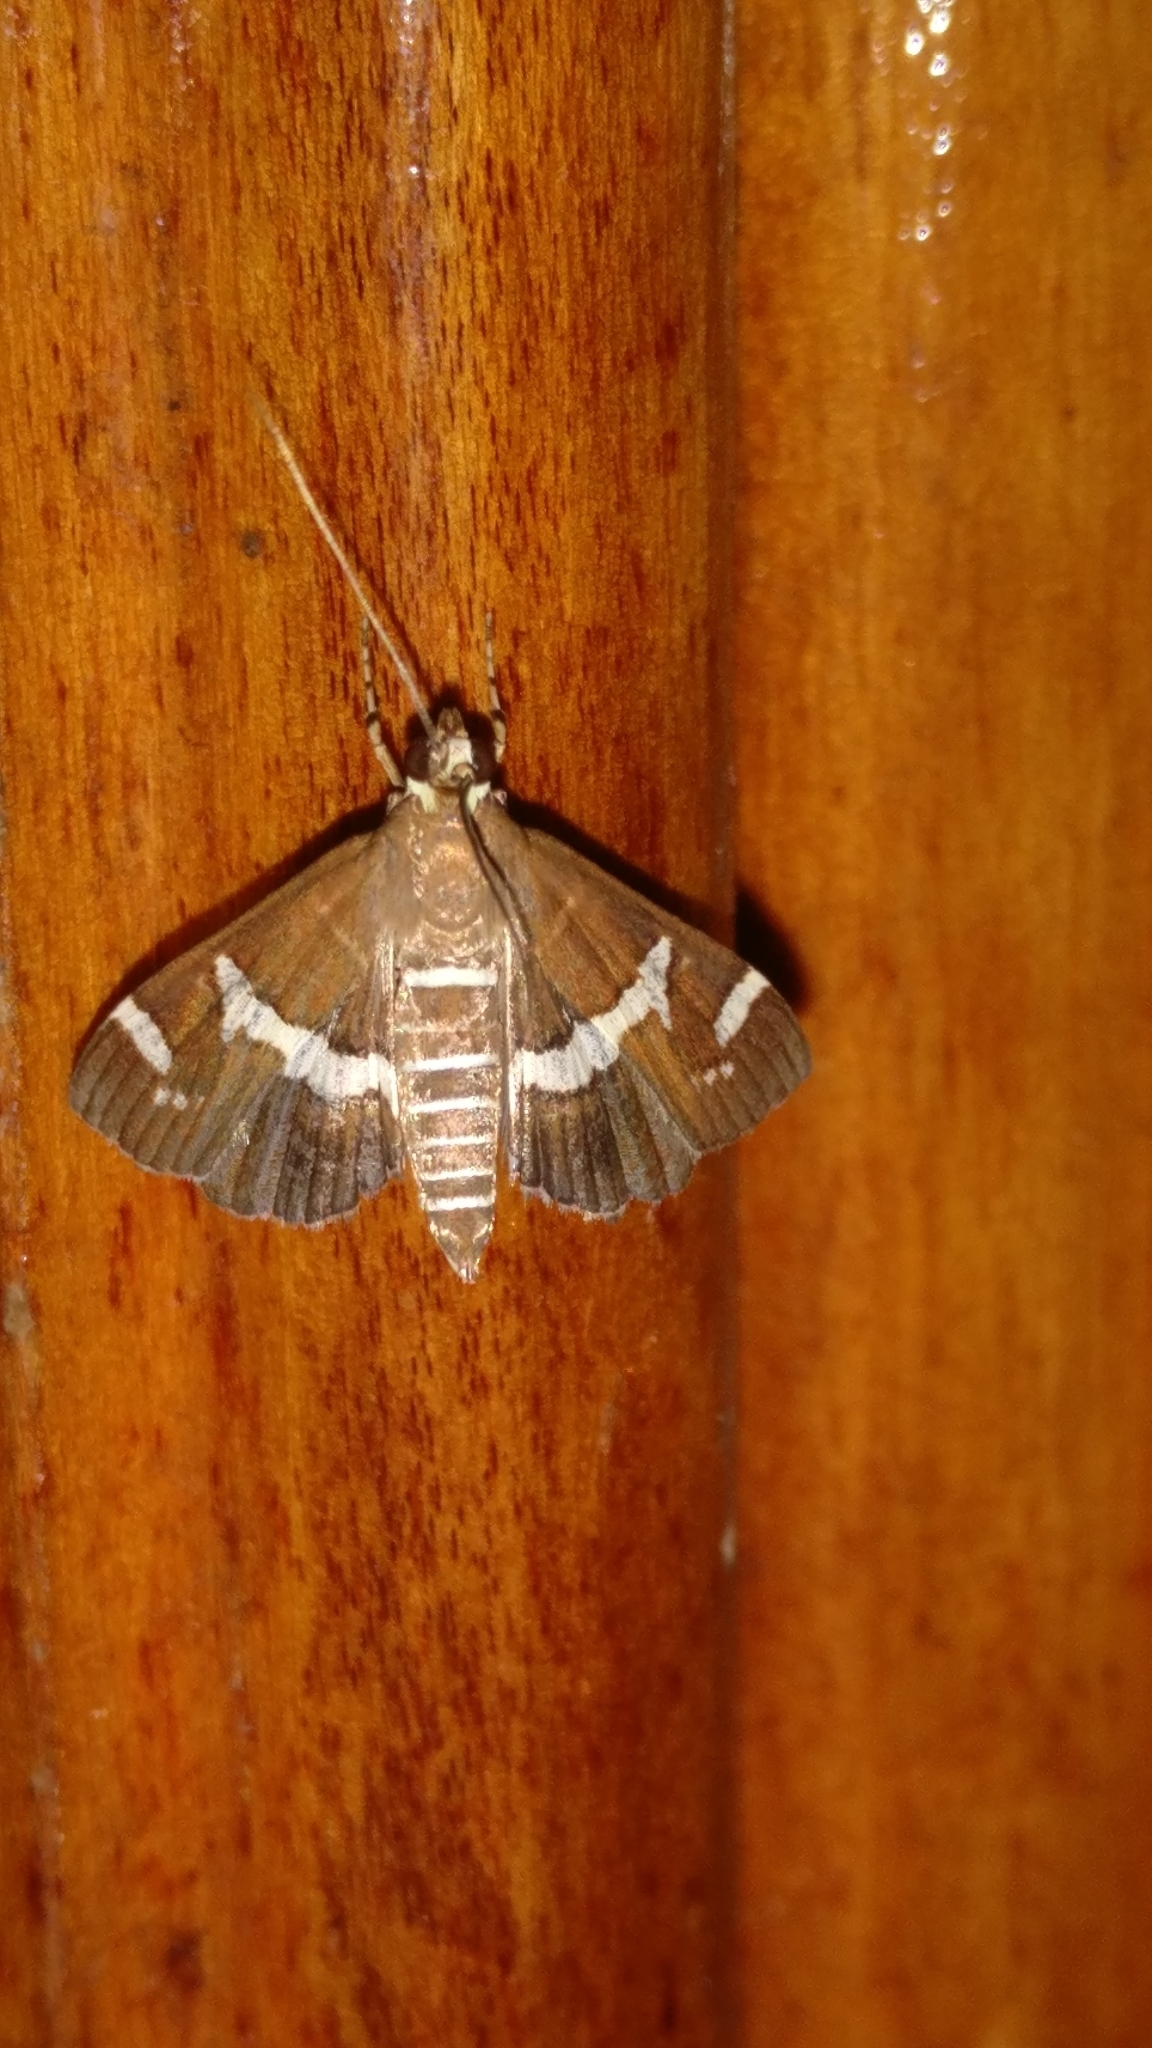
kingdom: Animalia
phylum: Arthropoda
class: Insecta
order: Lepidoptera
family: Crambidae
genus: Spoladea
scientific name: Spoladea recurvalis
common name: Beet webworm moth
